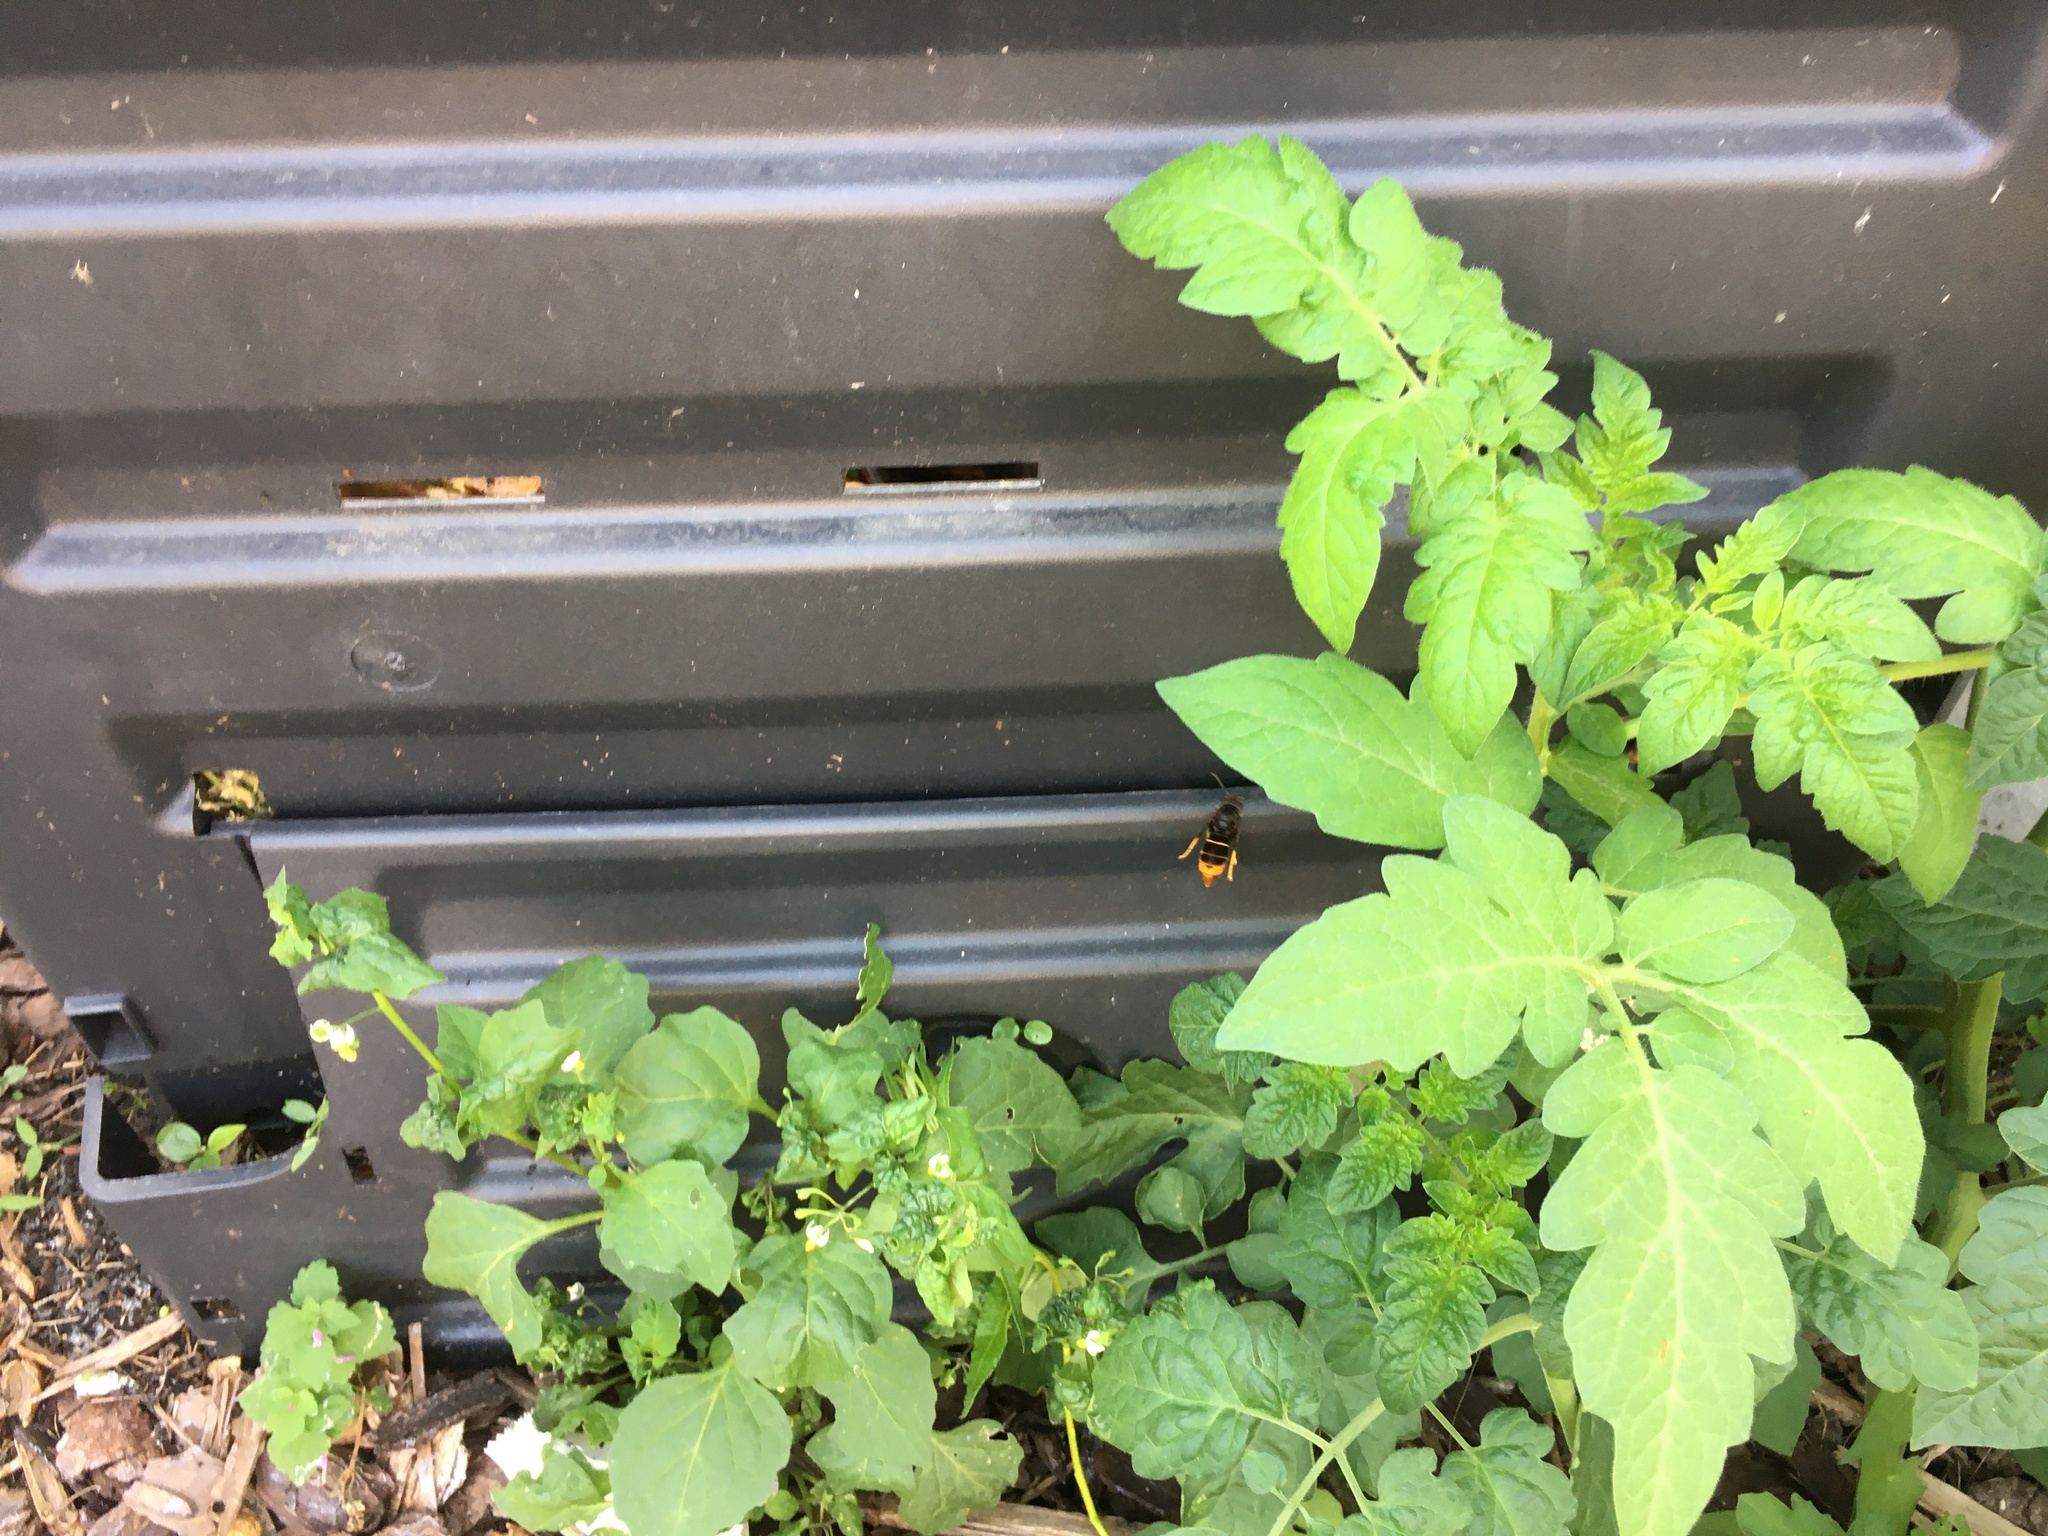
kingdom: Animalia
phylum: Arthropoda
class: Insecta
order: Hymenoptera
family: Vespidae
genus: Vespa
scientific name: Vespa velutina
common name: Asian hornet
